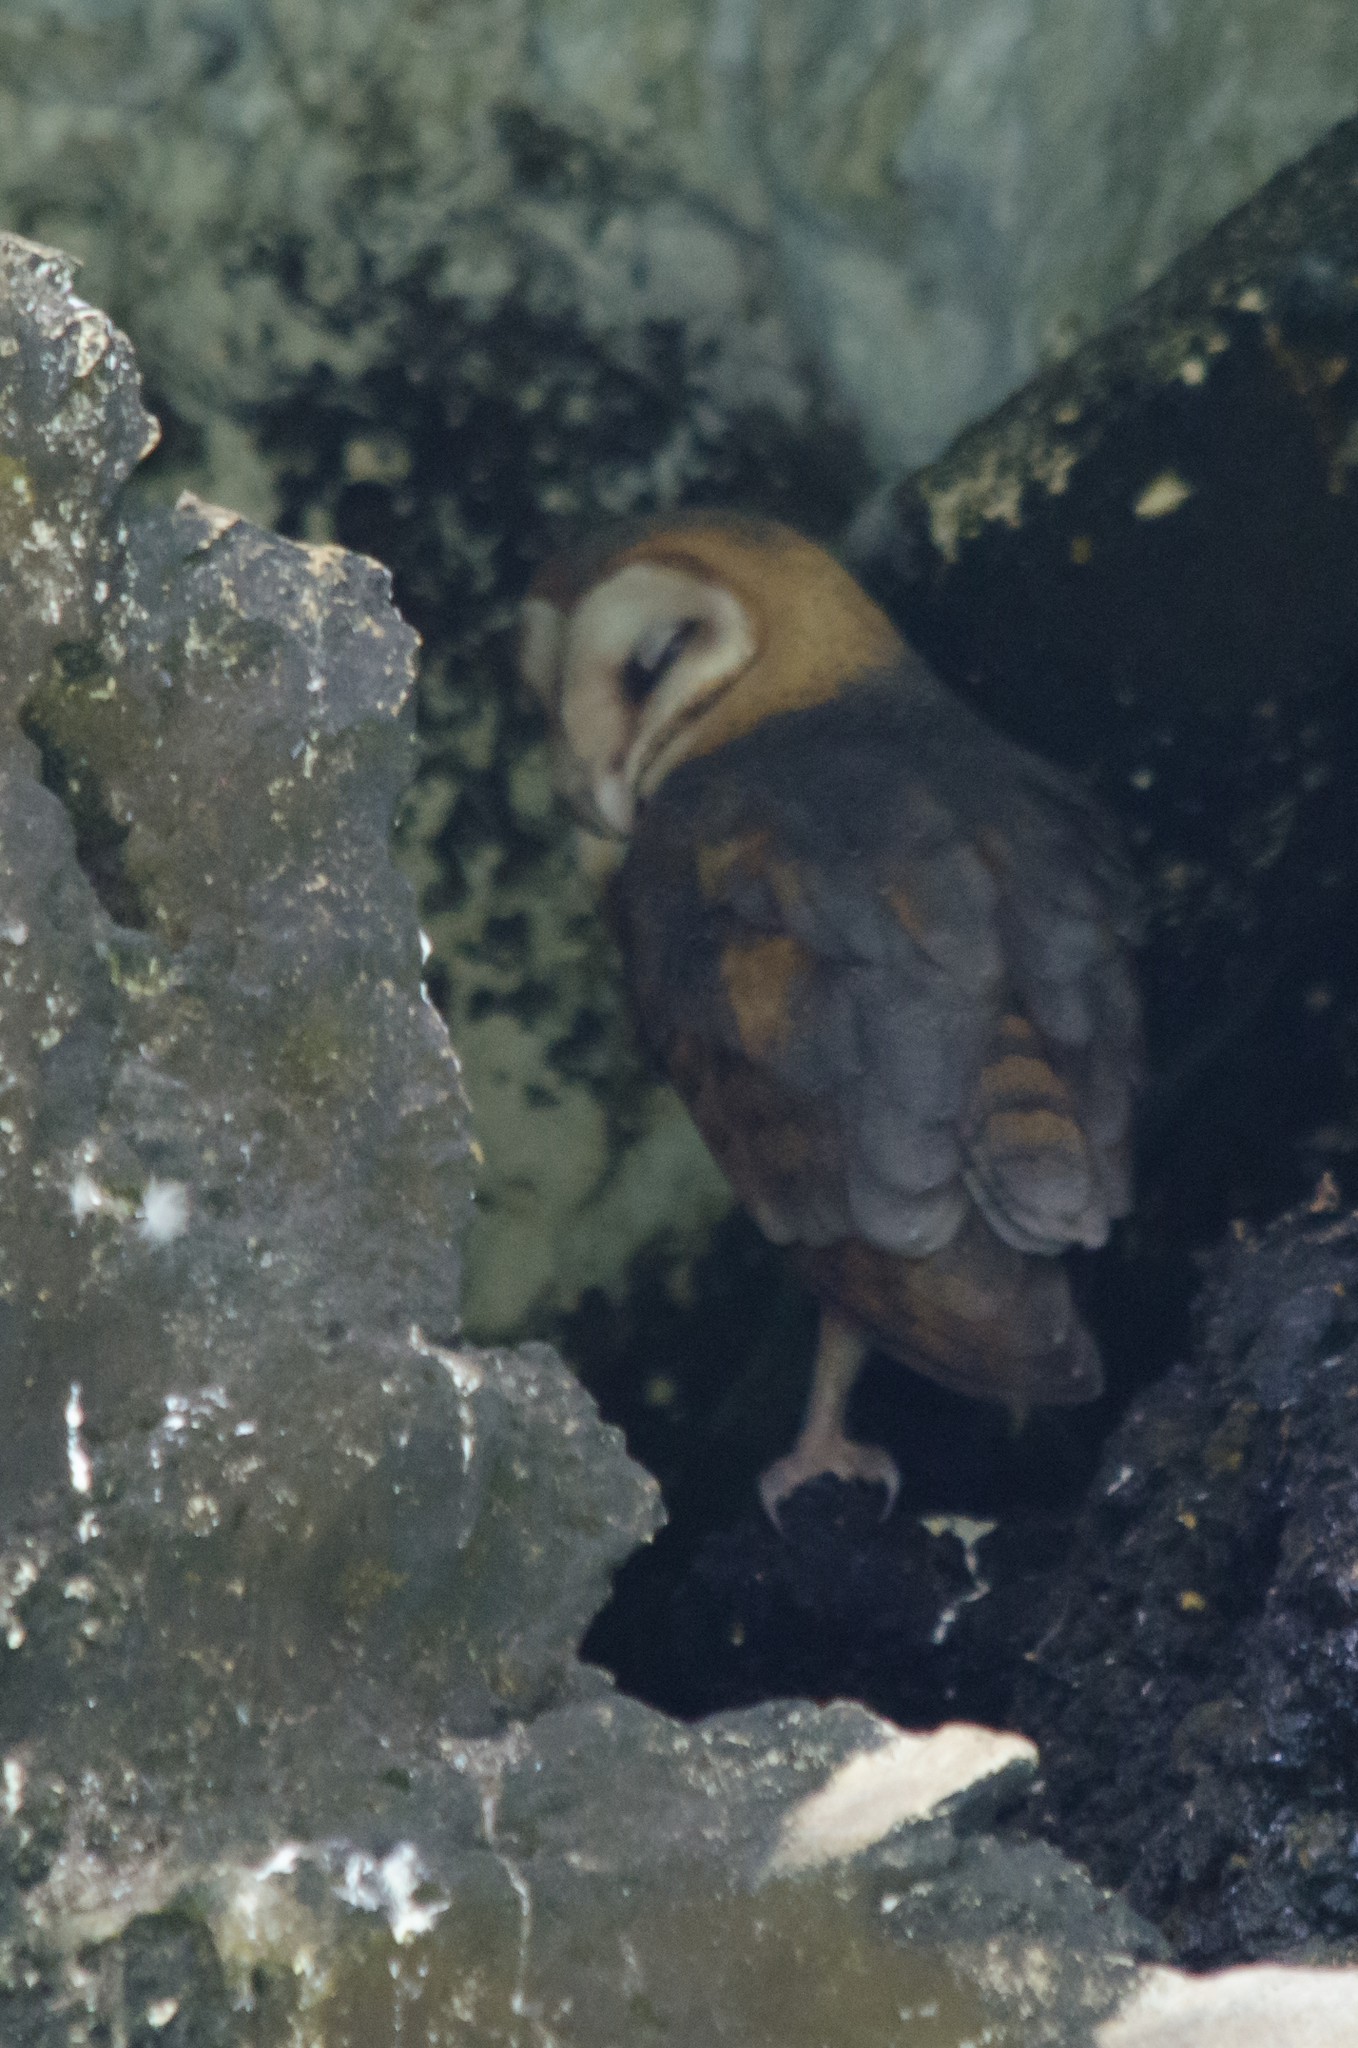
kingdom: Animalia
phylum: Chordata
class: Aves
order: Strigiformes
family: Tytonidae
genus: Tyto
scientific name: Tyto alba
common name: Barn owl
